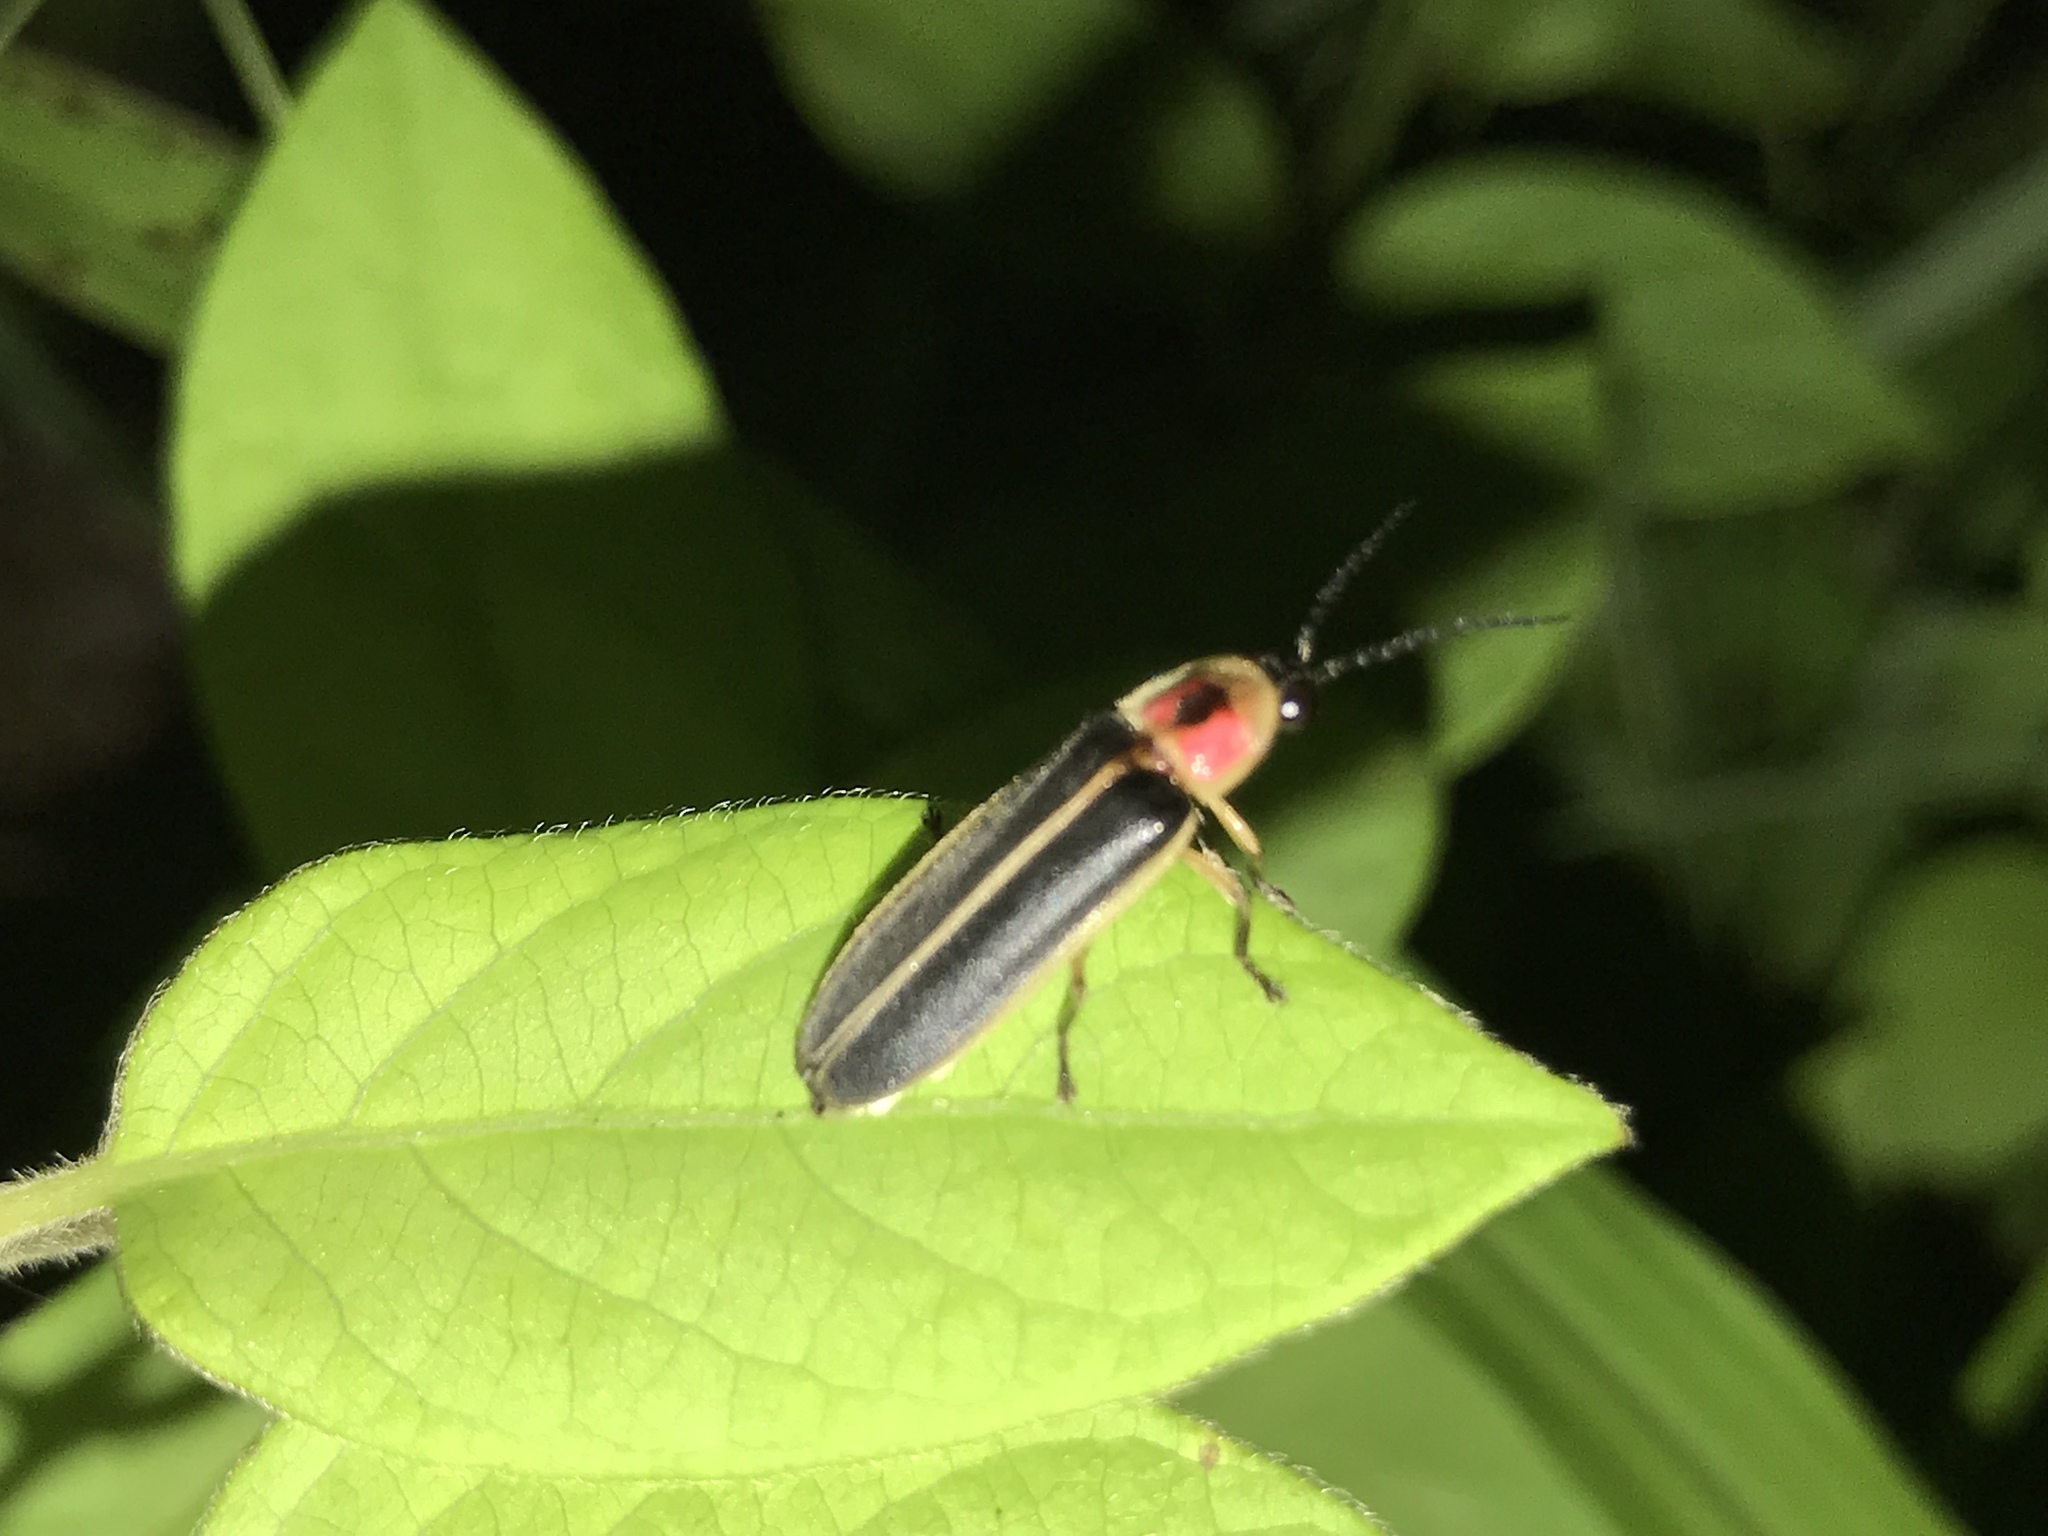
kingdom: Animalia
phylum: Arthropoda
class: Insecta
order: Coleoptera
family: Lampyridae
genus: Photinus
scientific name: Photinus pyralis
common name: Big dipper firefly
